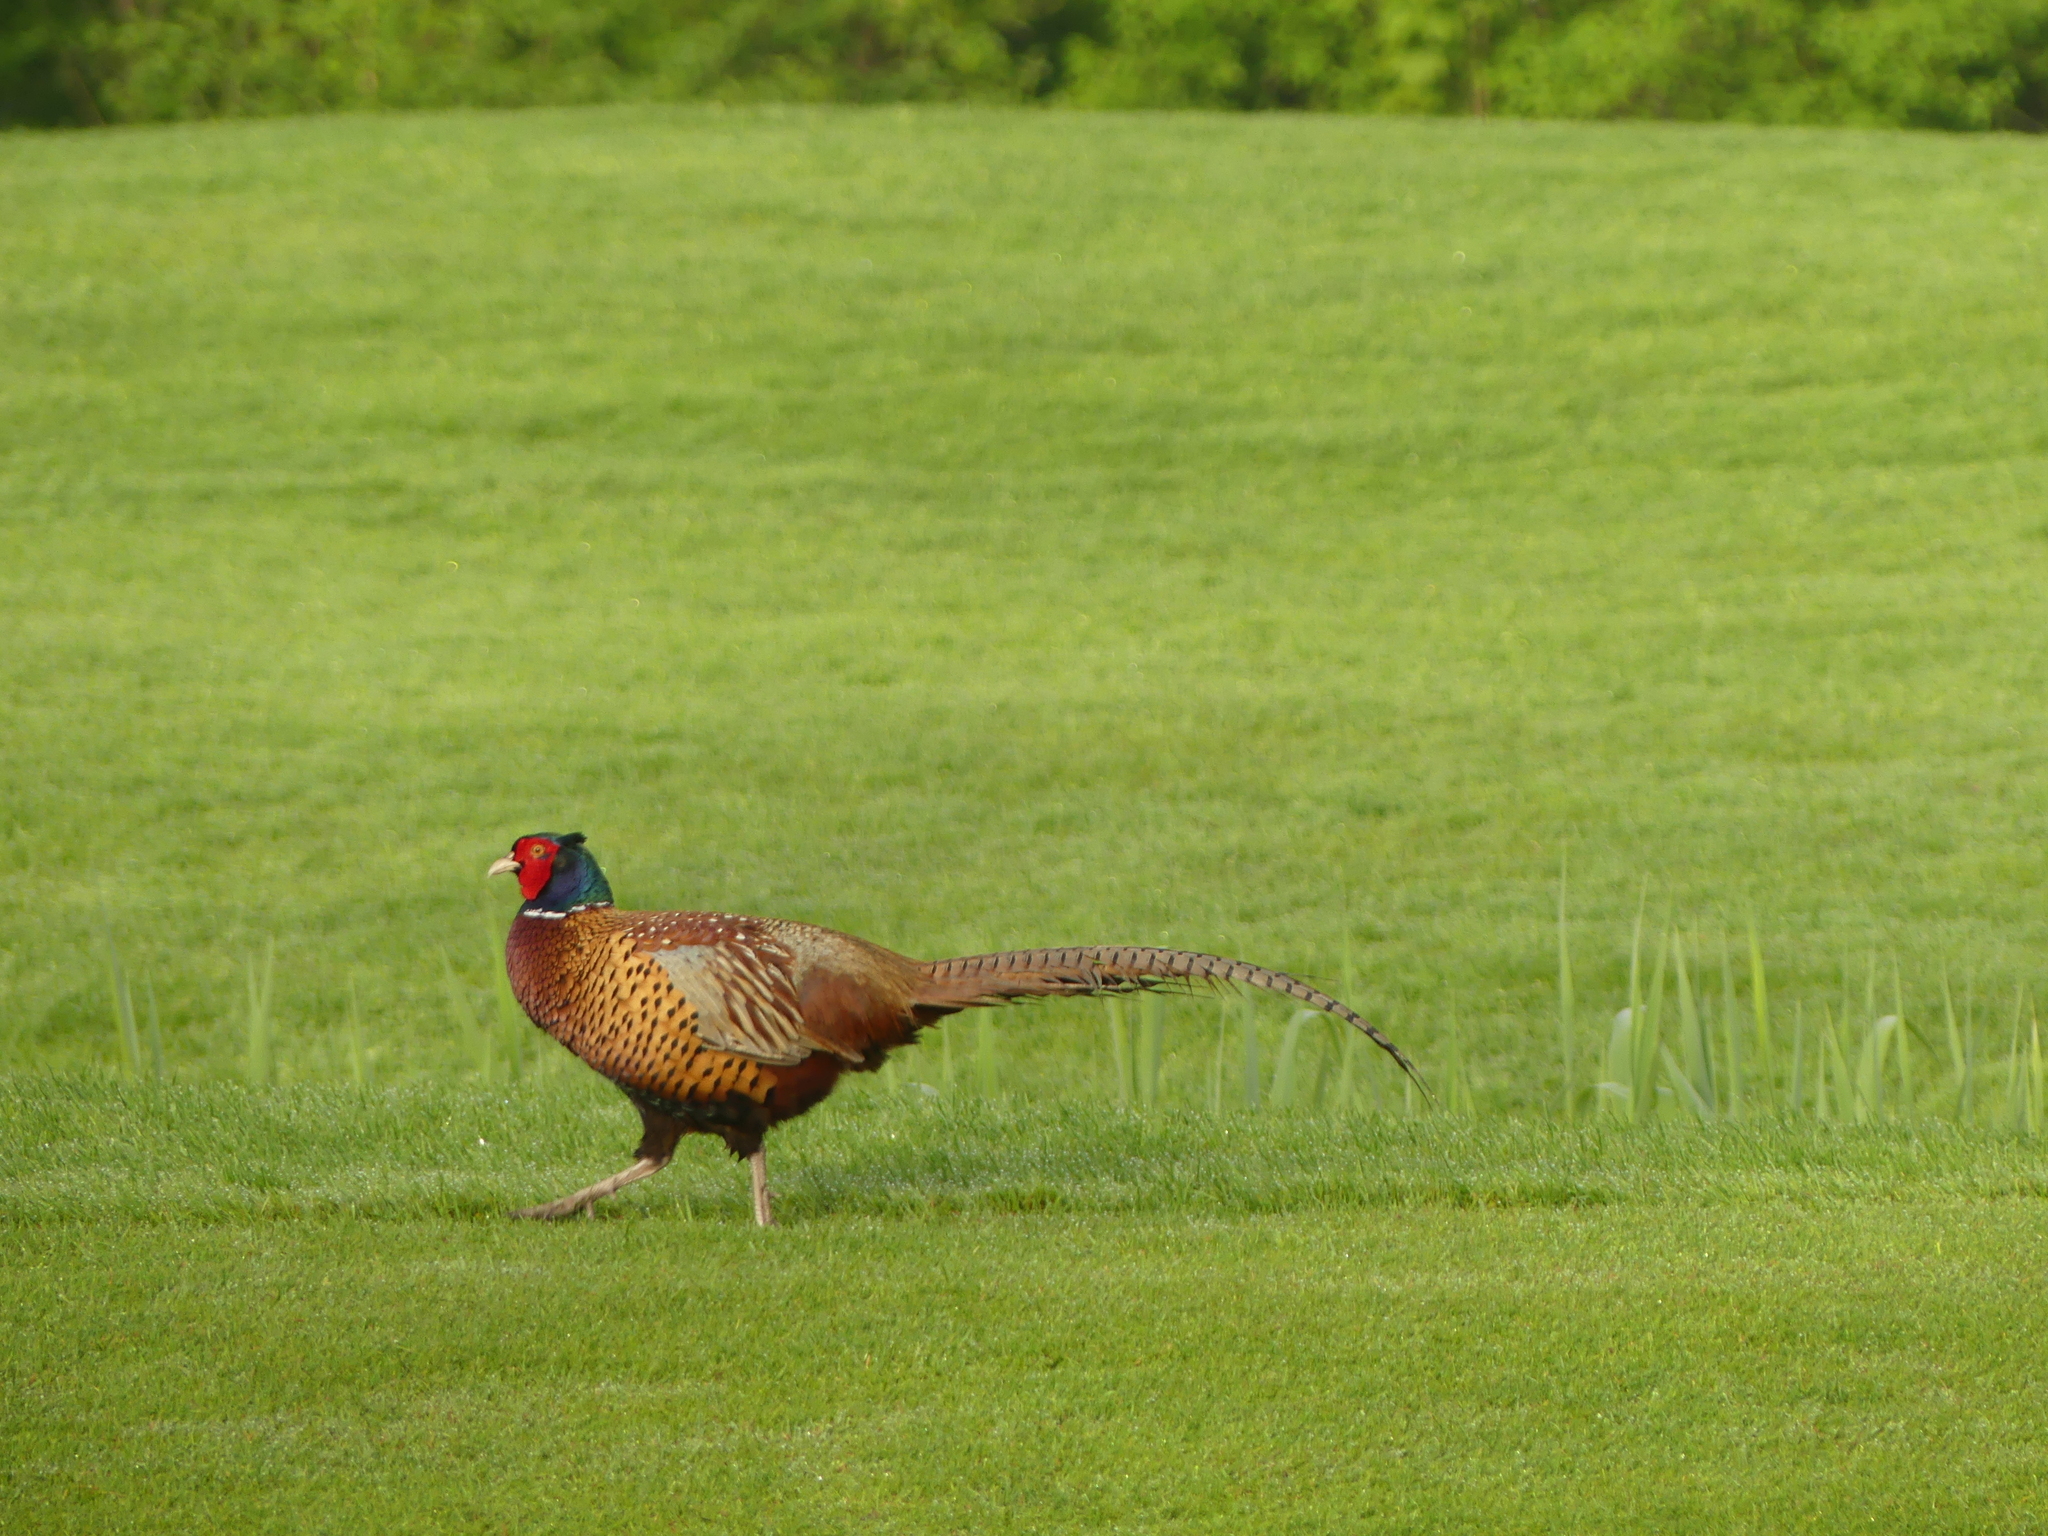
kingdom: Animalia
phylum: Chordata
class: Aves
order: Galliformes
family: Phasianidae
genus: Phasianus
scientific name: Phasianus colchicus
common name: Common pheasant
